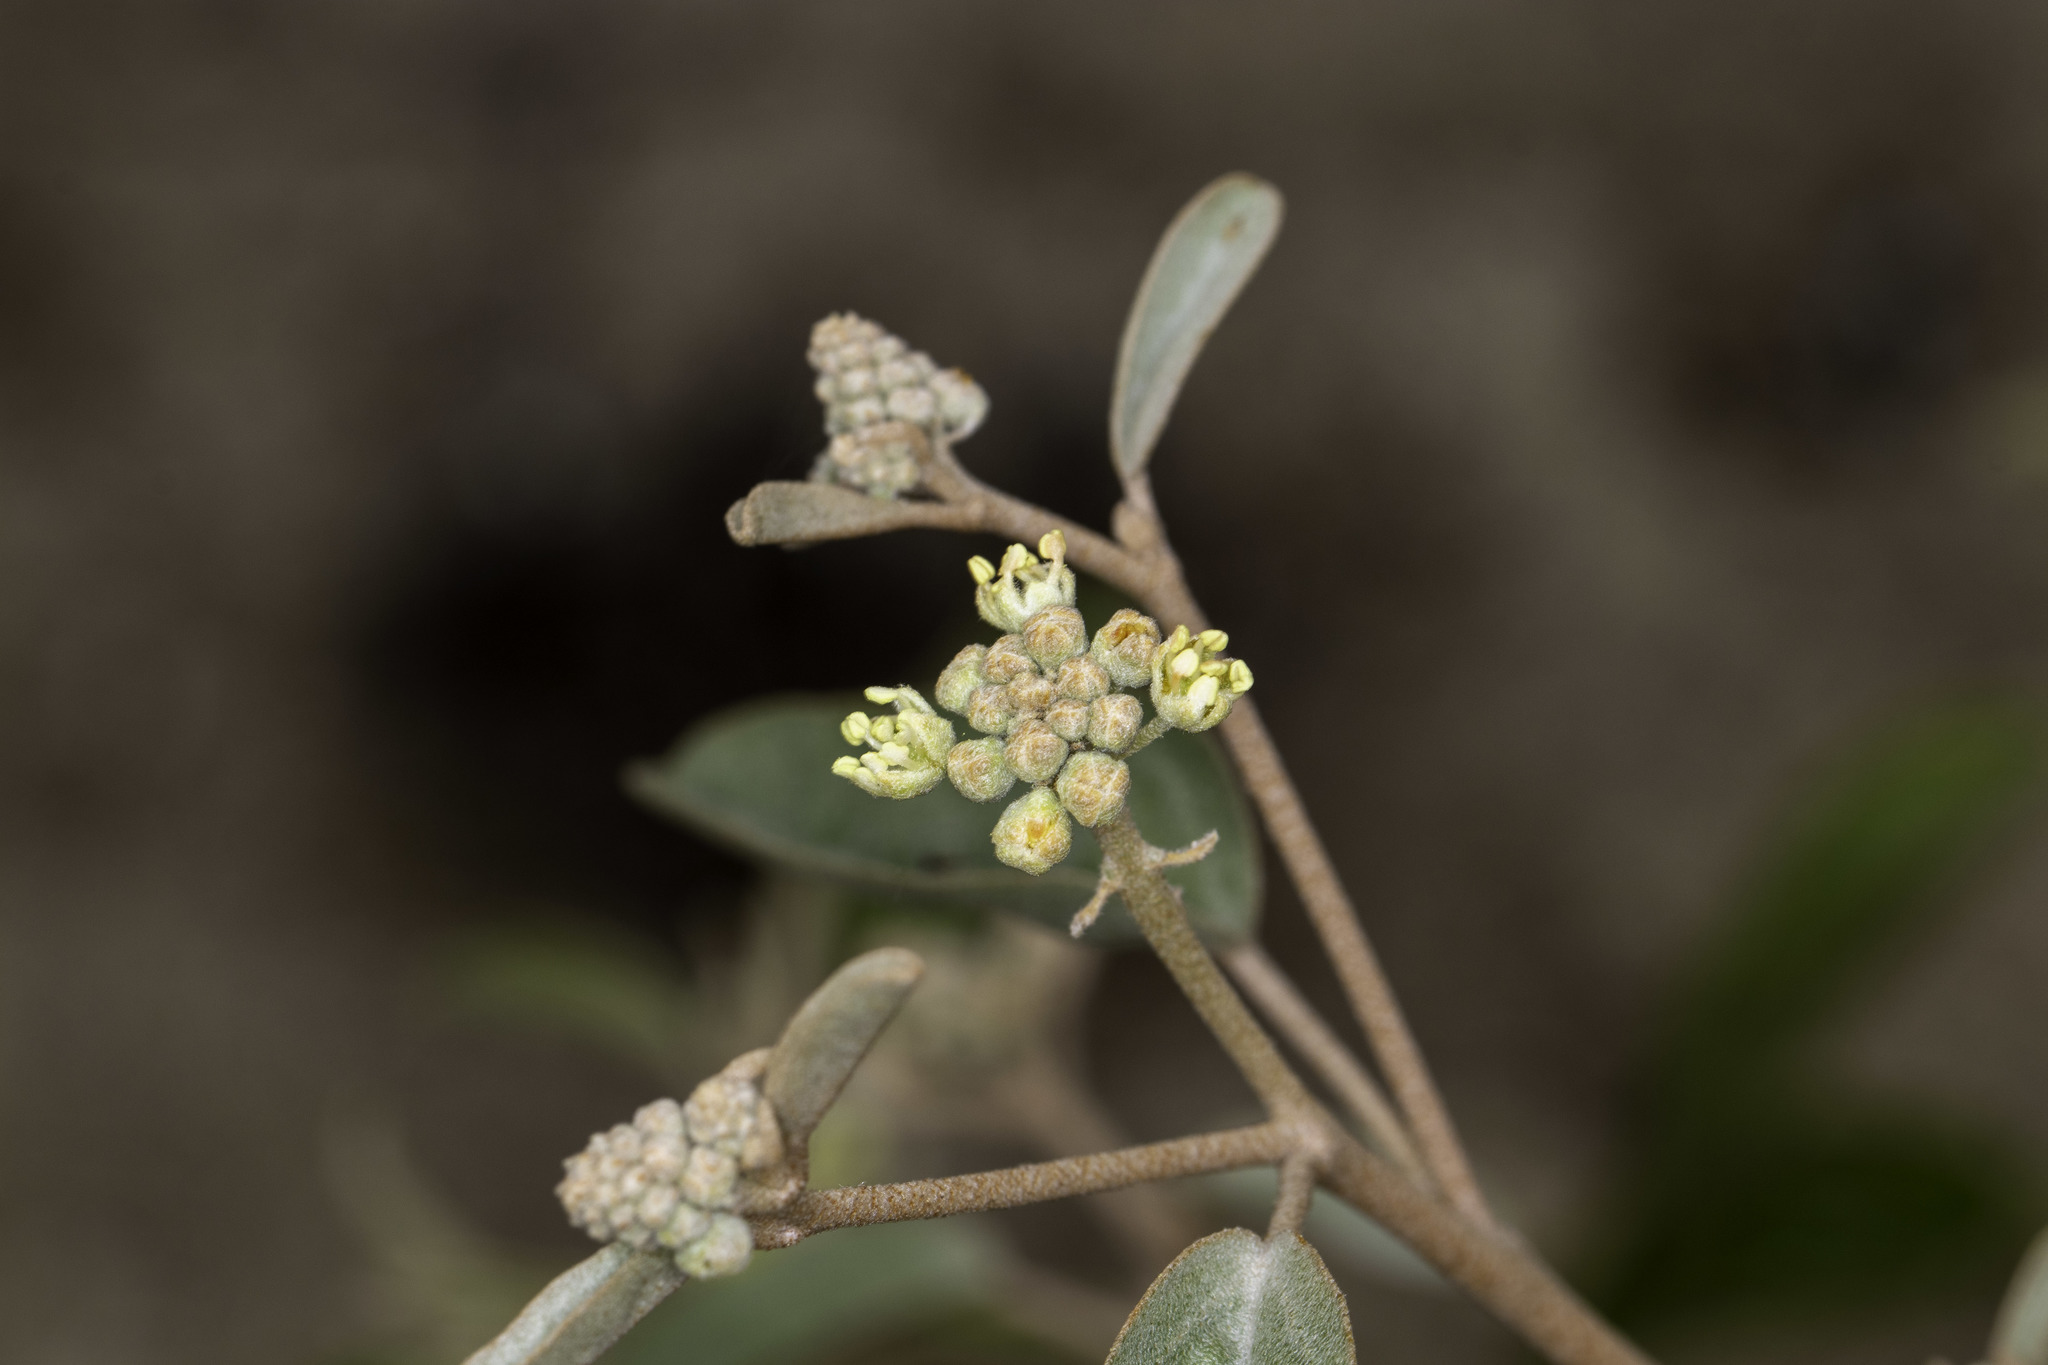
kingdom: Plantae
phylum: Tracheophyta
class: Magnoliopsida
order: Malpighiales
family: Euphorbiaceae
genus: Croton
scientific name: Croton californicus
